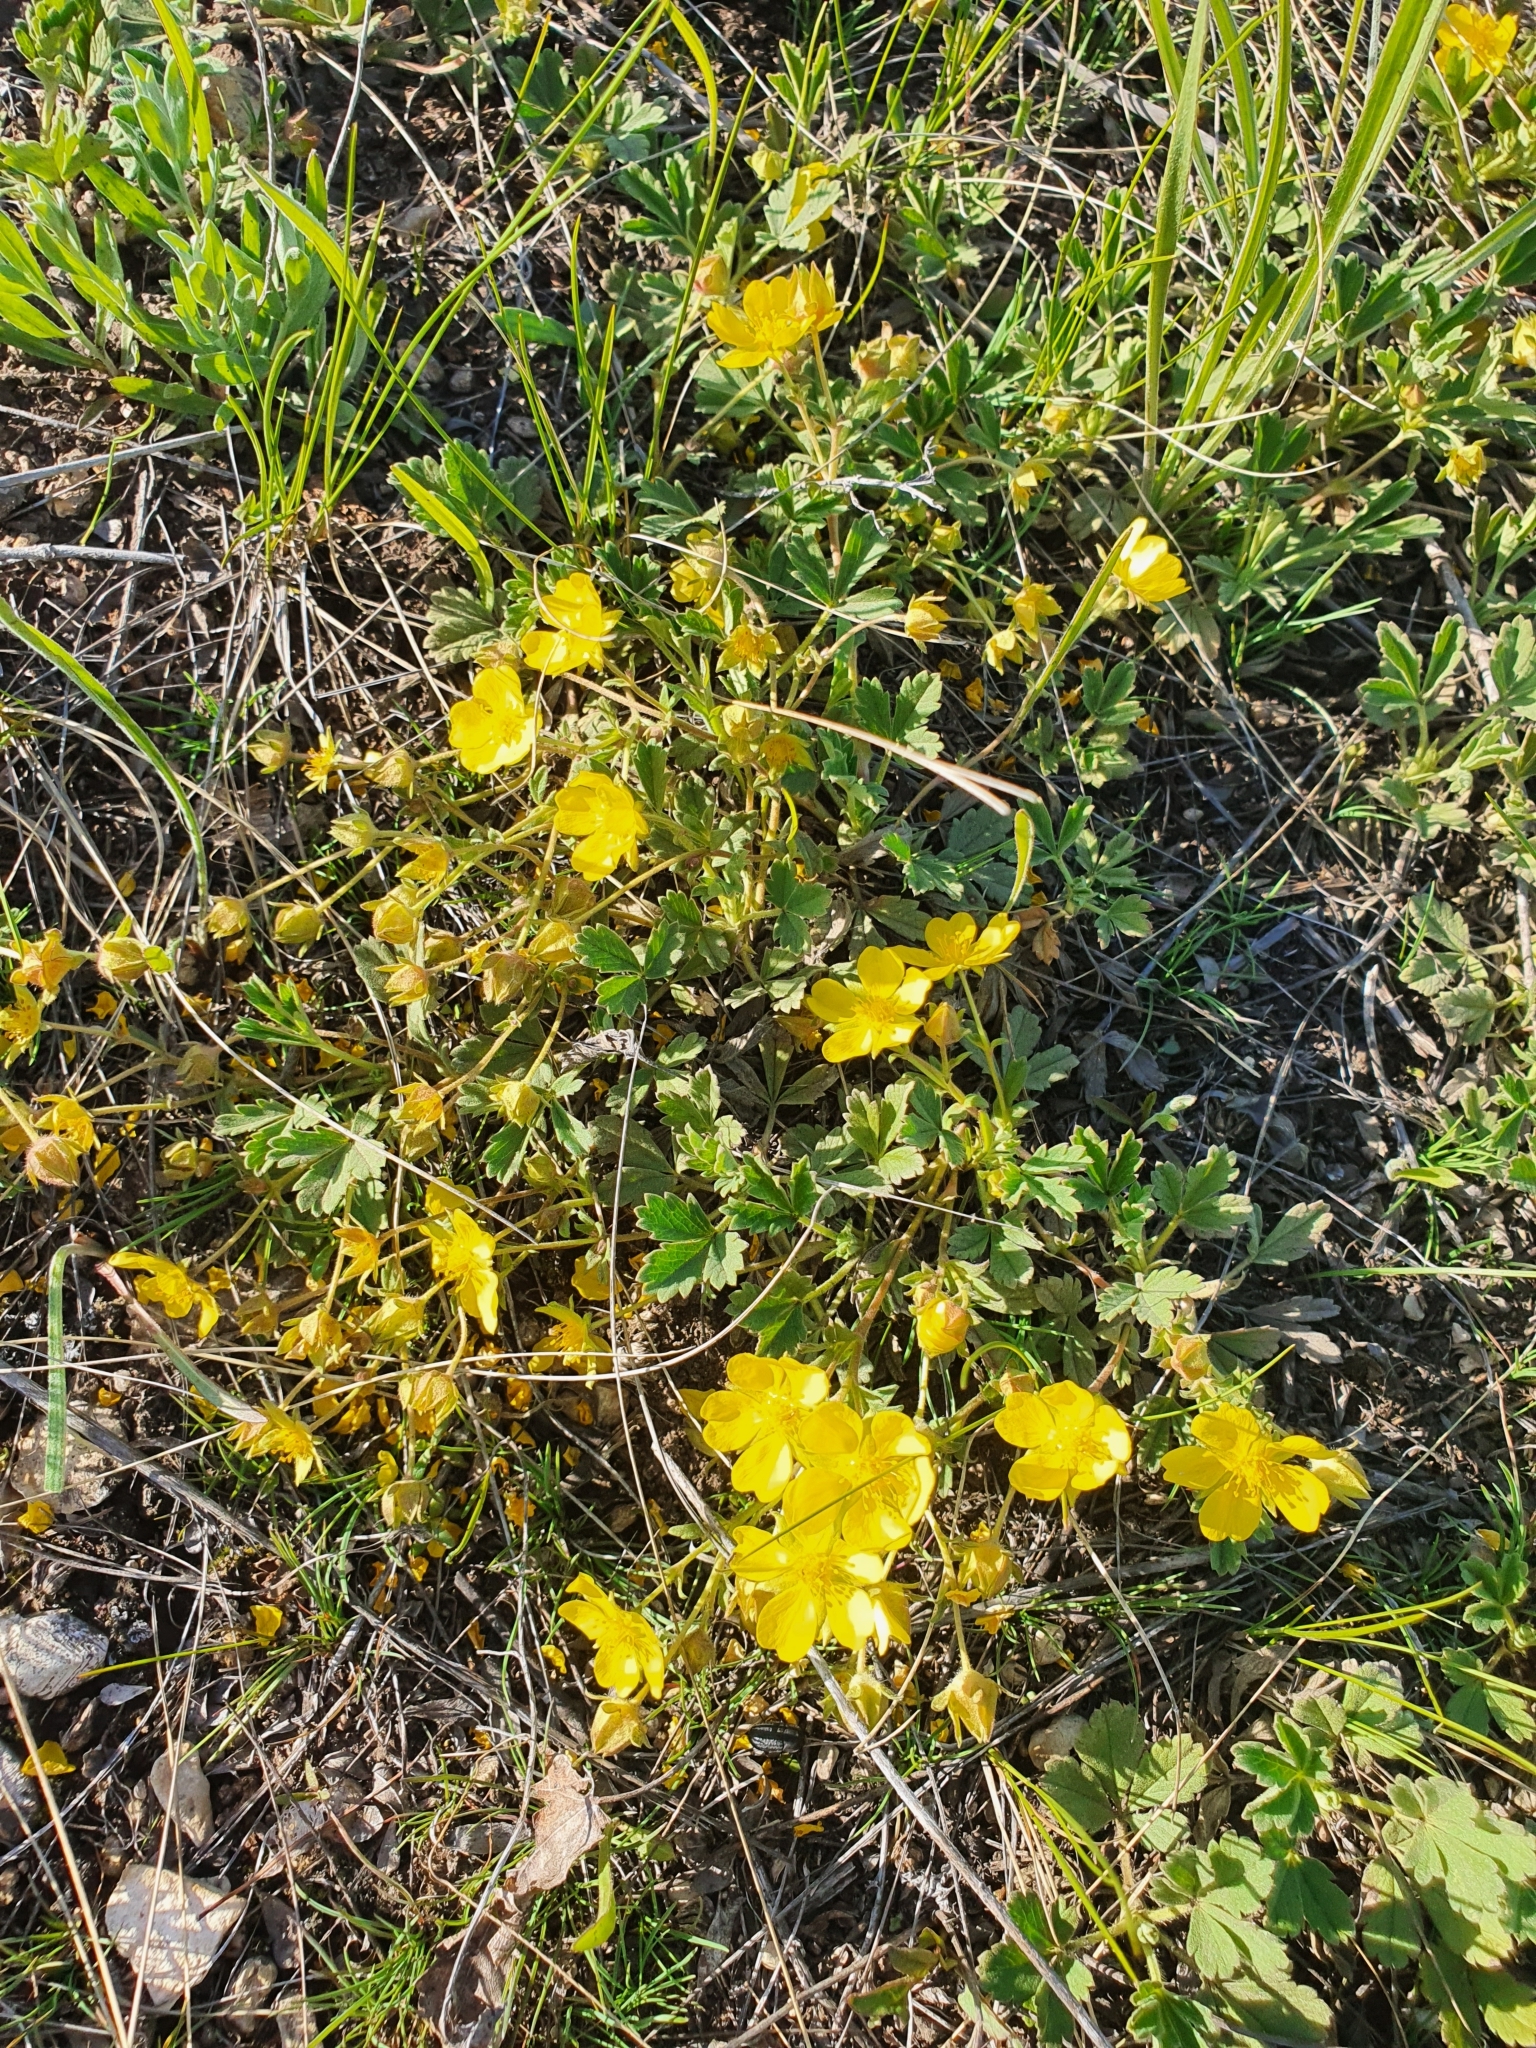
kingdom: Plantae
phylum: Tracheophyta
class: Magnoliopsida
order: Rosales
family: Rosaceae
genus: Potentilla
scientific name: Potentilla incana
